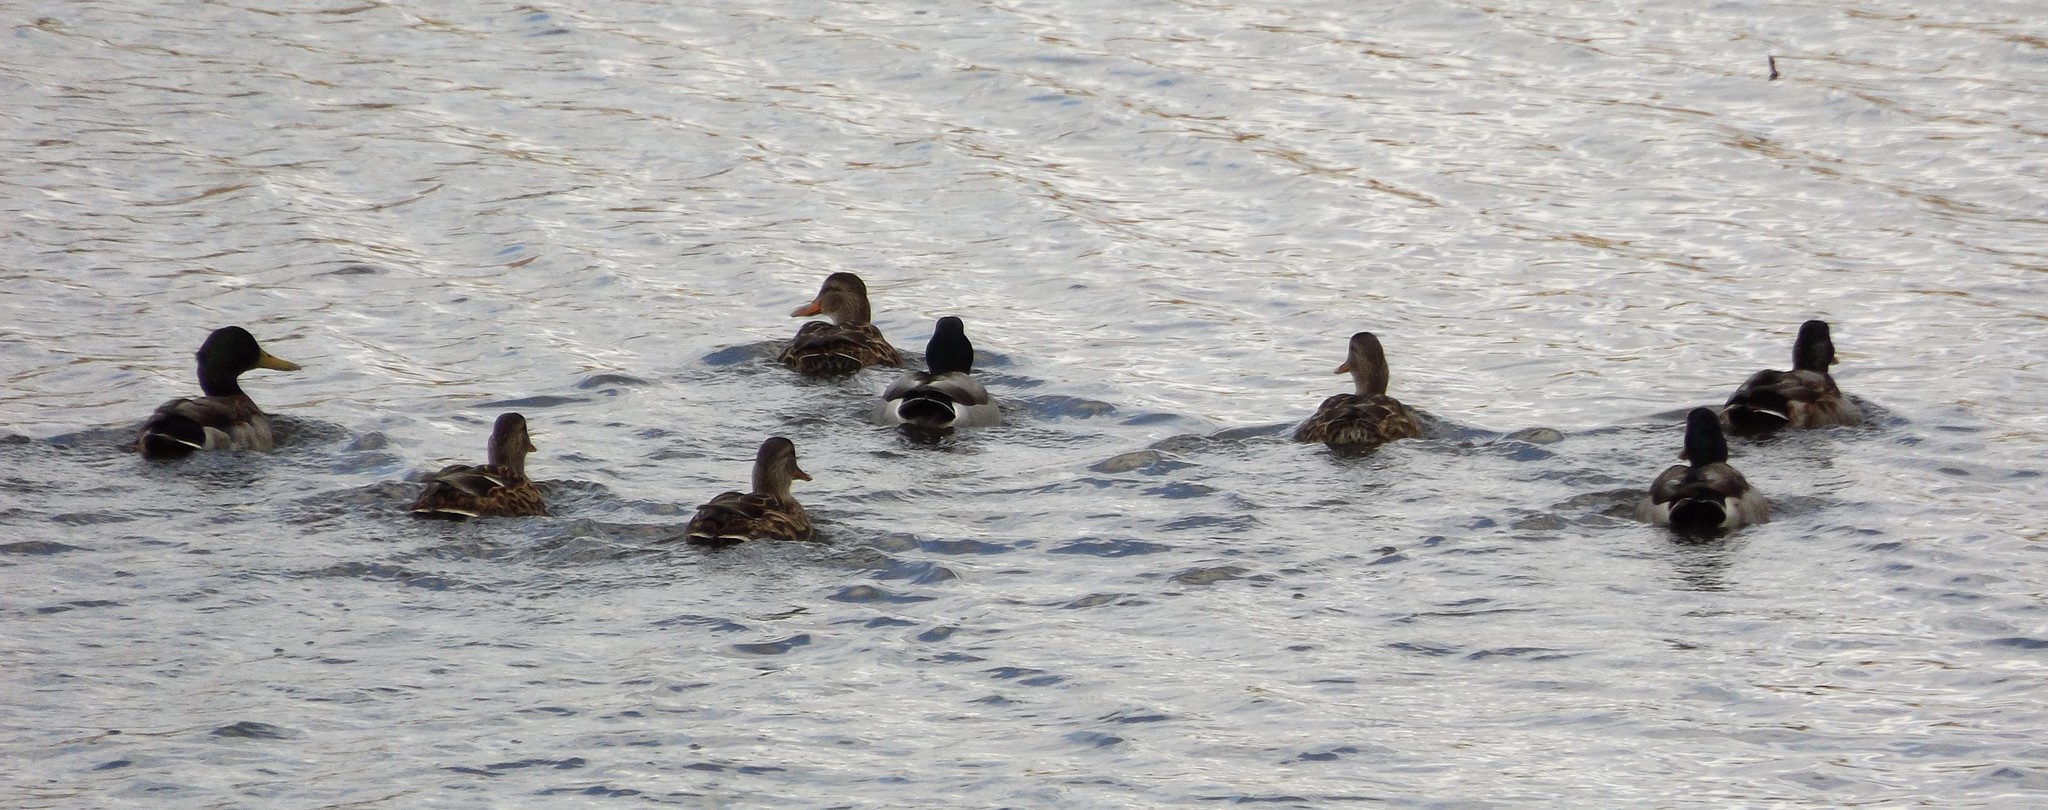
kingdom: Animalia
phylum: Chordata
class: Aves
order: Anseriformes
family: Anatidae
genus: Anas
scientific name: Anas platyrhynchos
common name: Mallard
